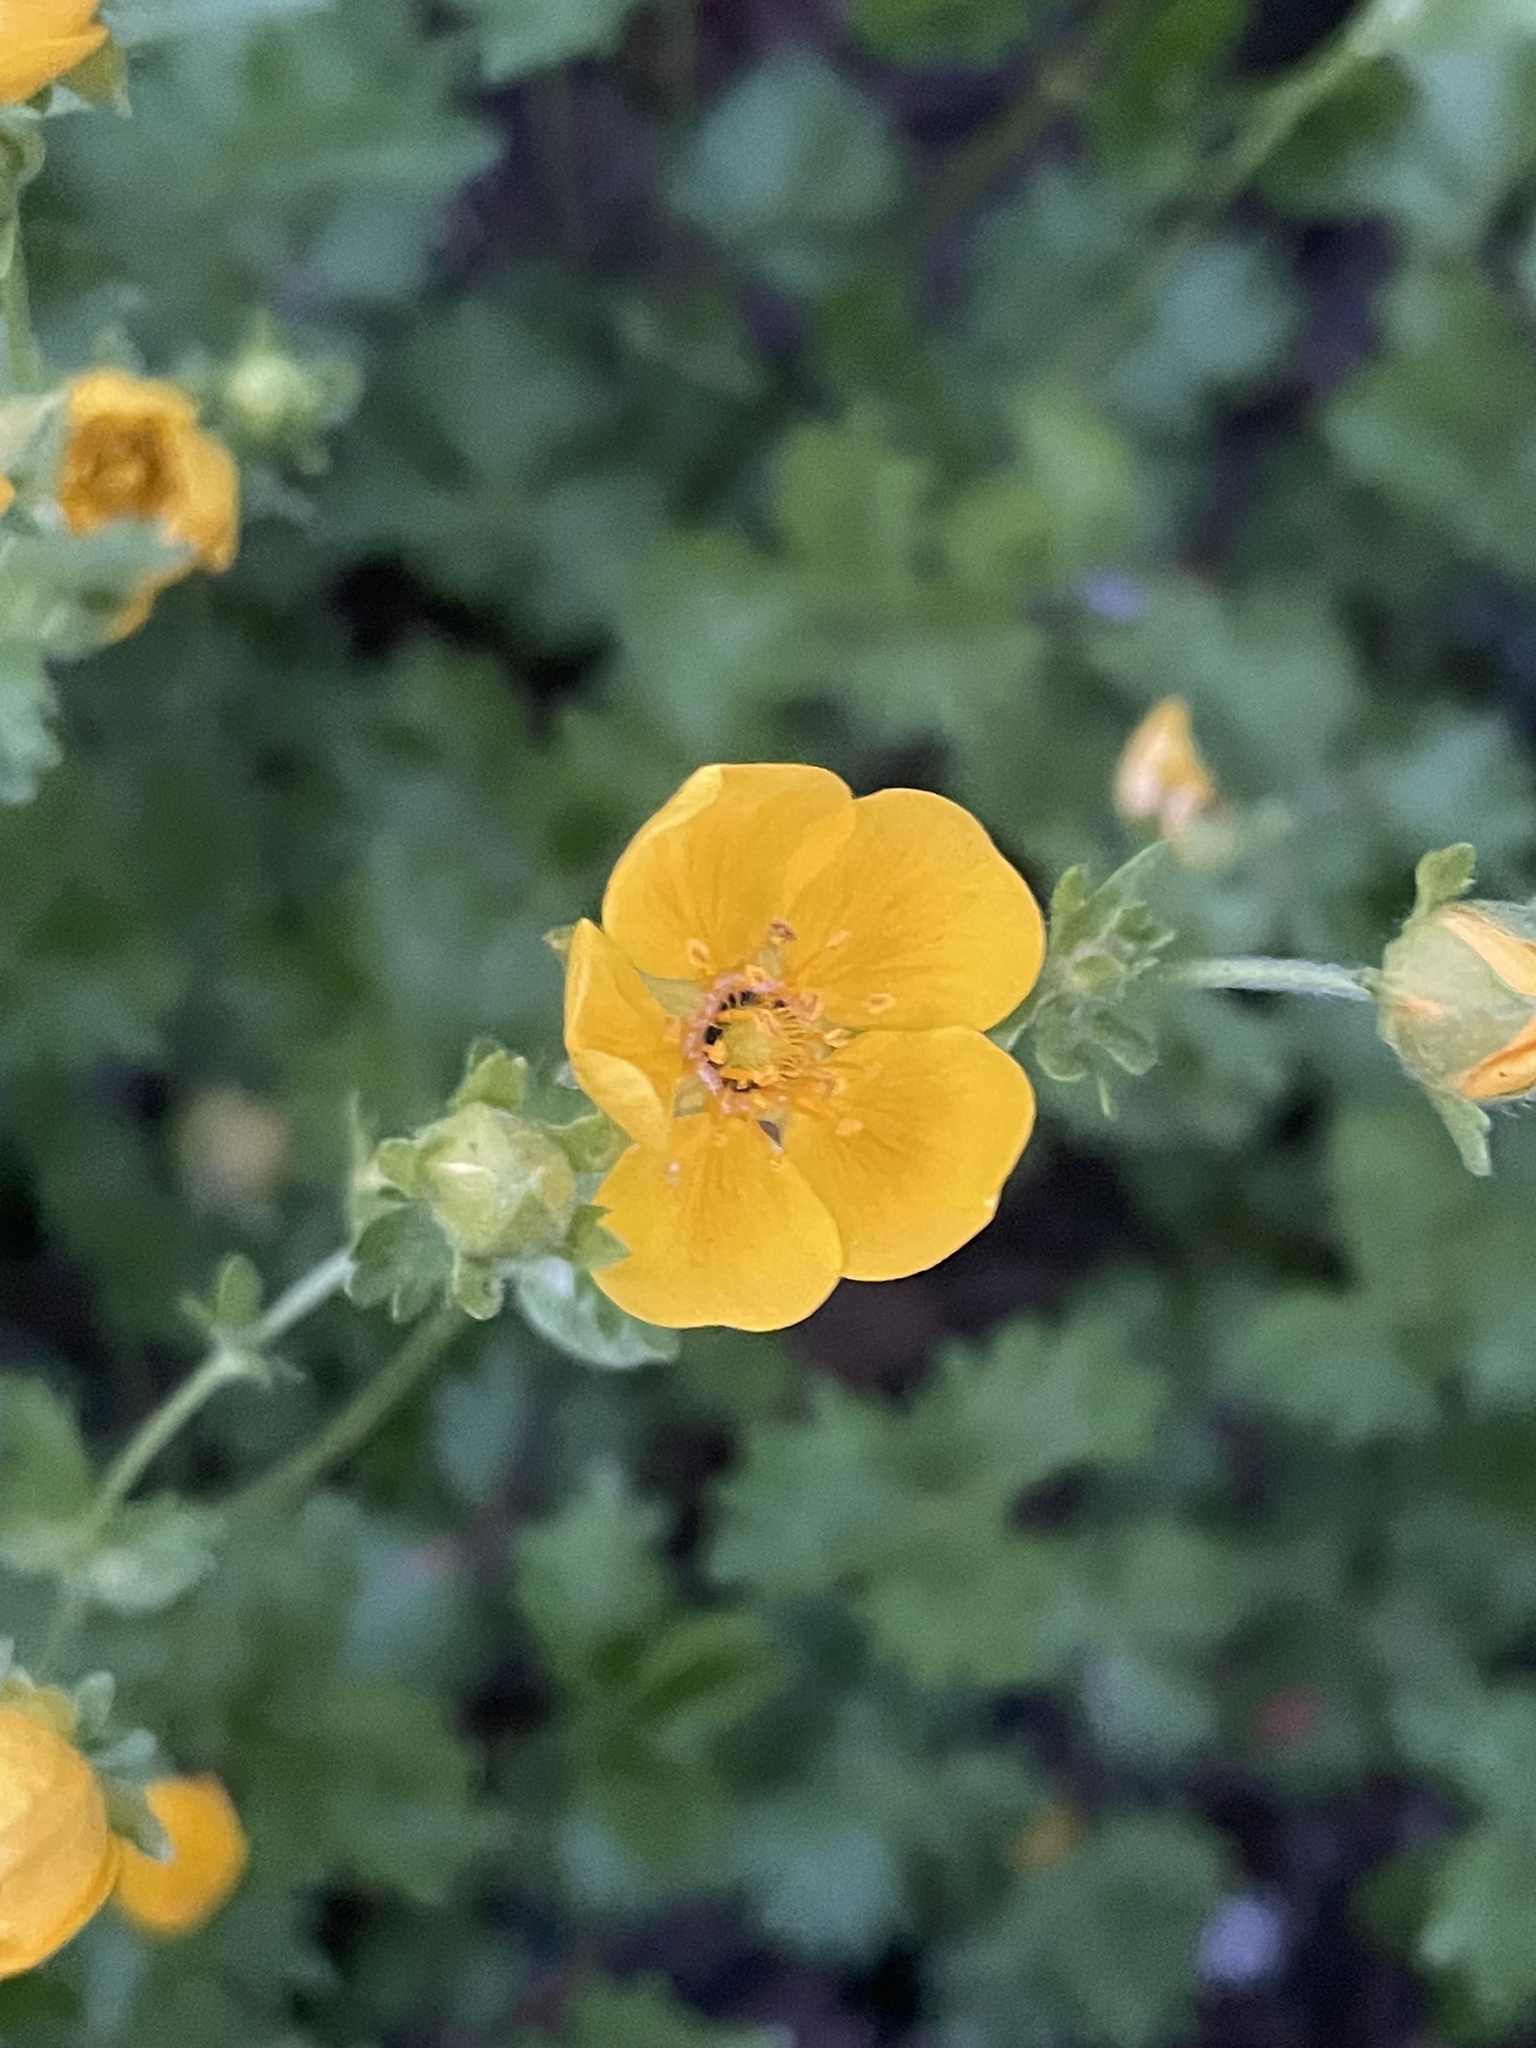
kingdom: Plantae
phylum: Tracheophyta
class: Magnoliopsida
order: Rosales
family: Rosaceae
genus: Potentilla
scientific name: Potentilla flabellifolia
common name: Mount rainier cinquefoil
